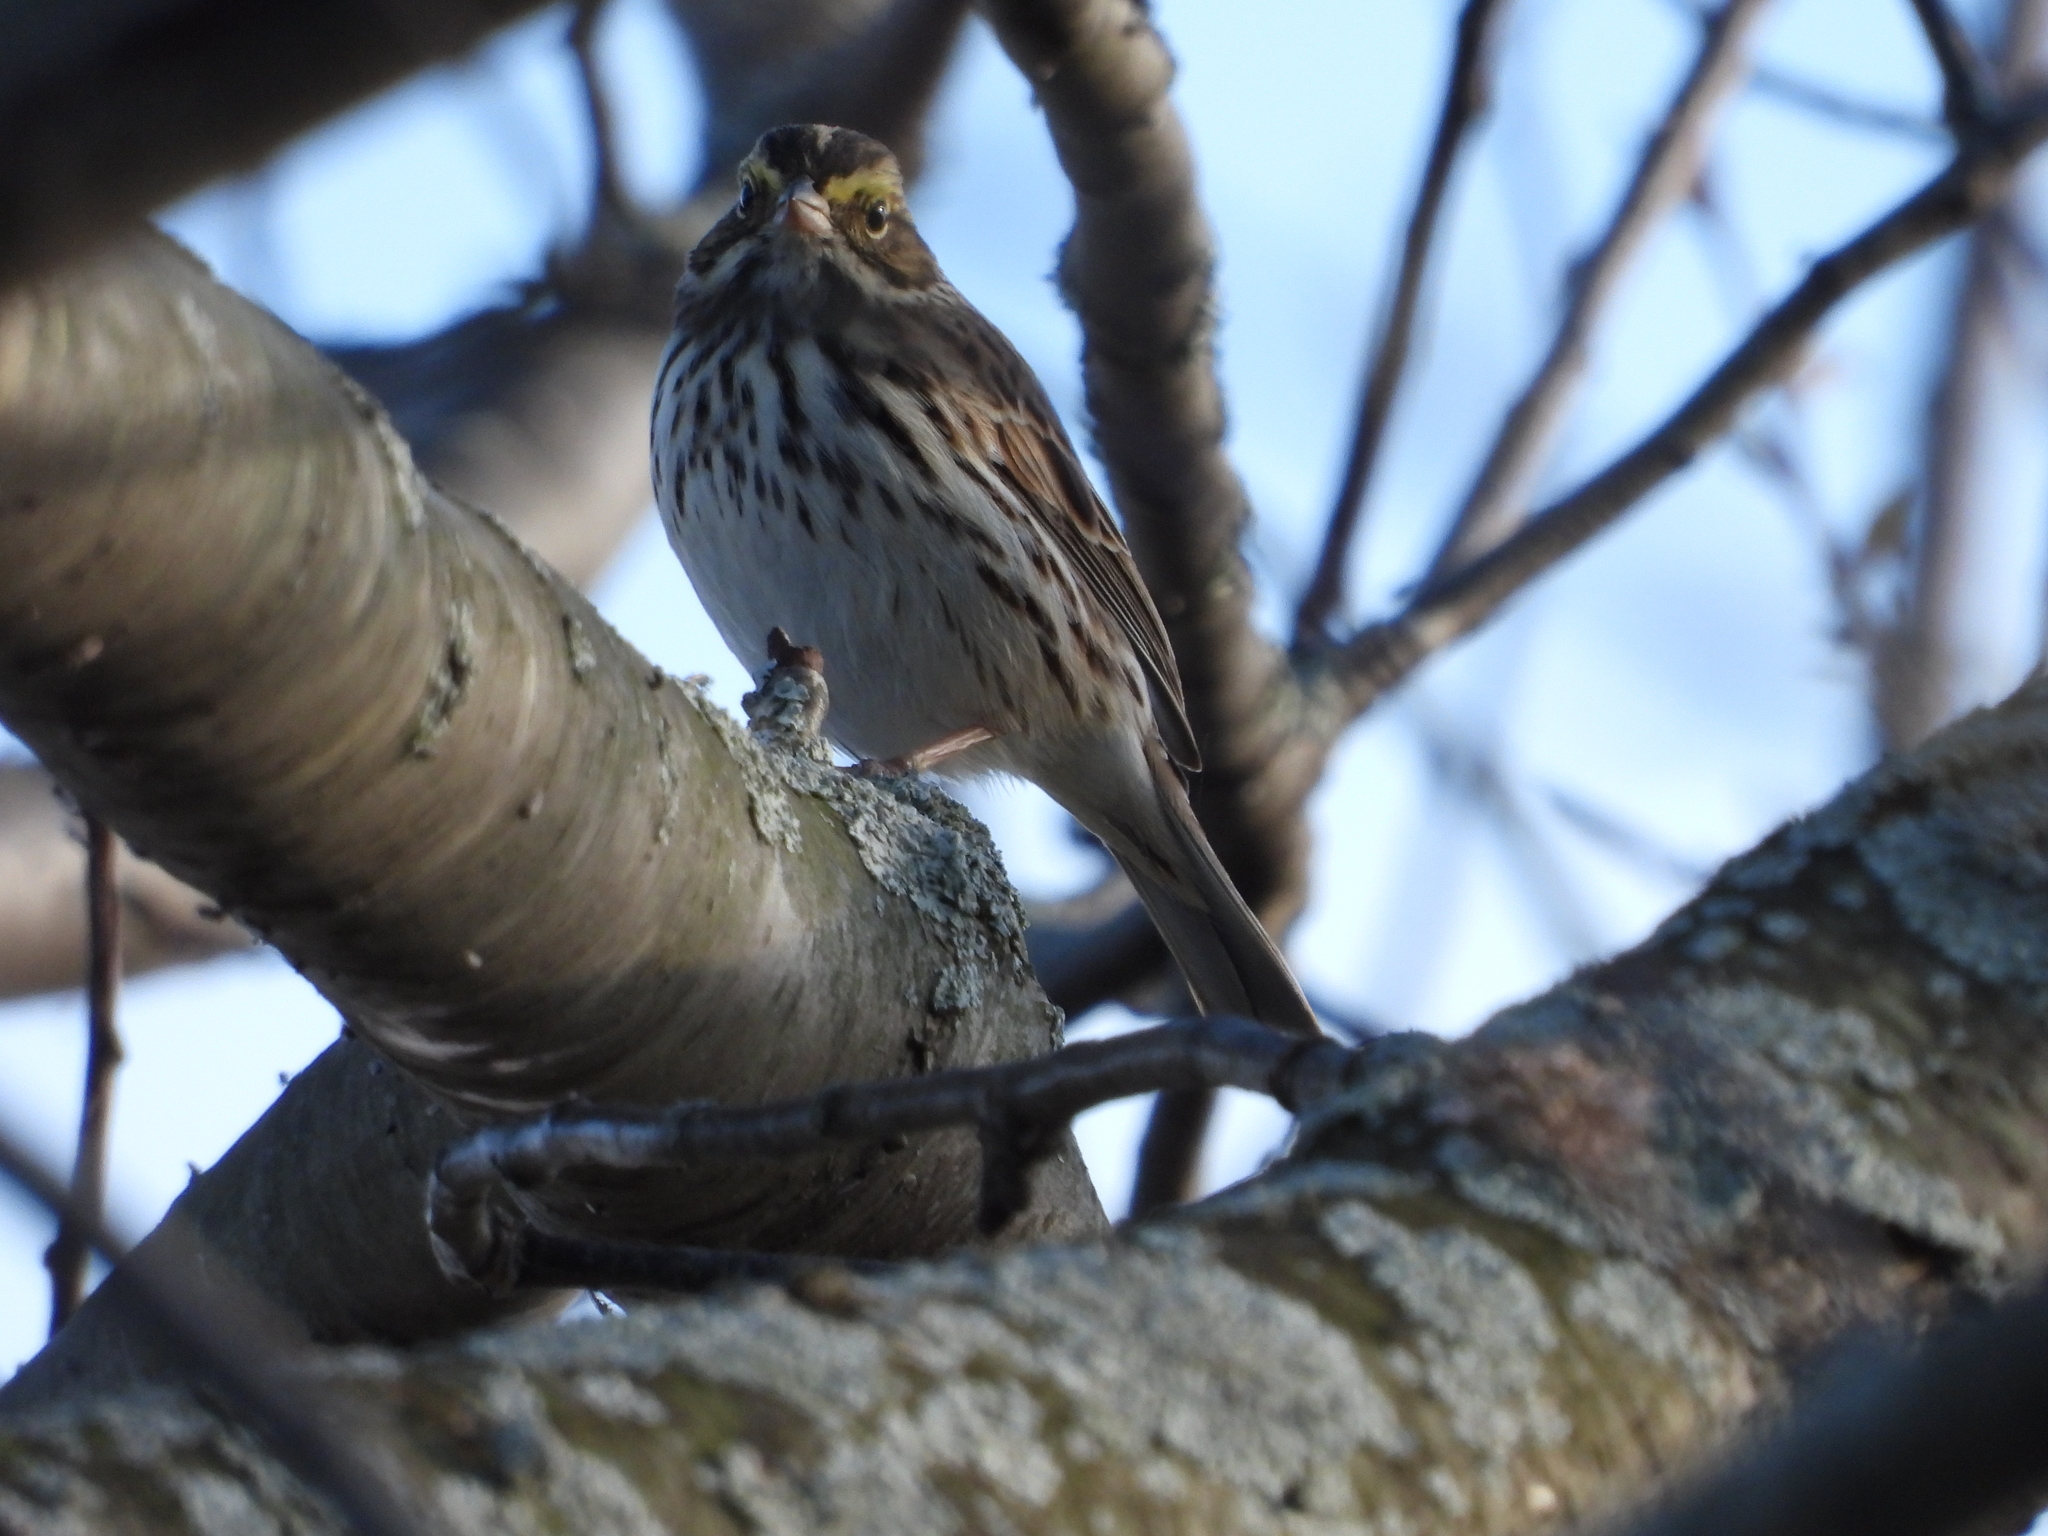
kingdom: Animalia
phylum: Chordata
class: Aves
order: Passeriformes
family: Passerellidae
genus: Passerculus
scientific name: Passerculus sandwichensis
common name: Savannah sparrow
